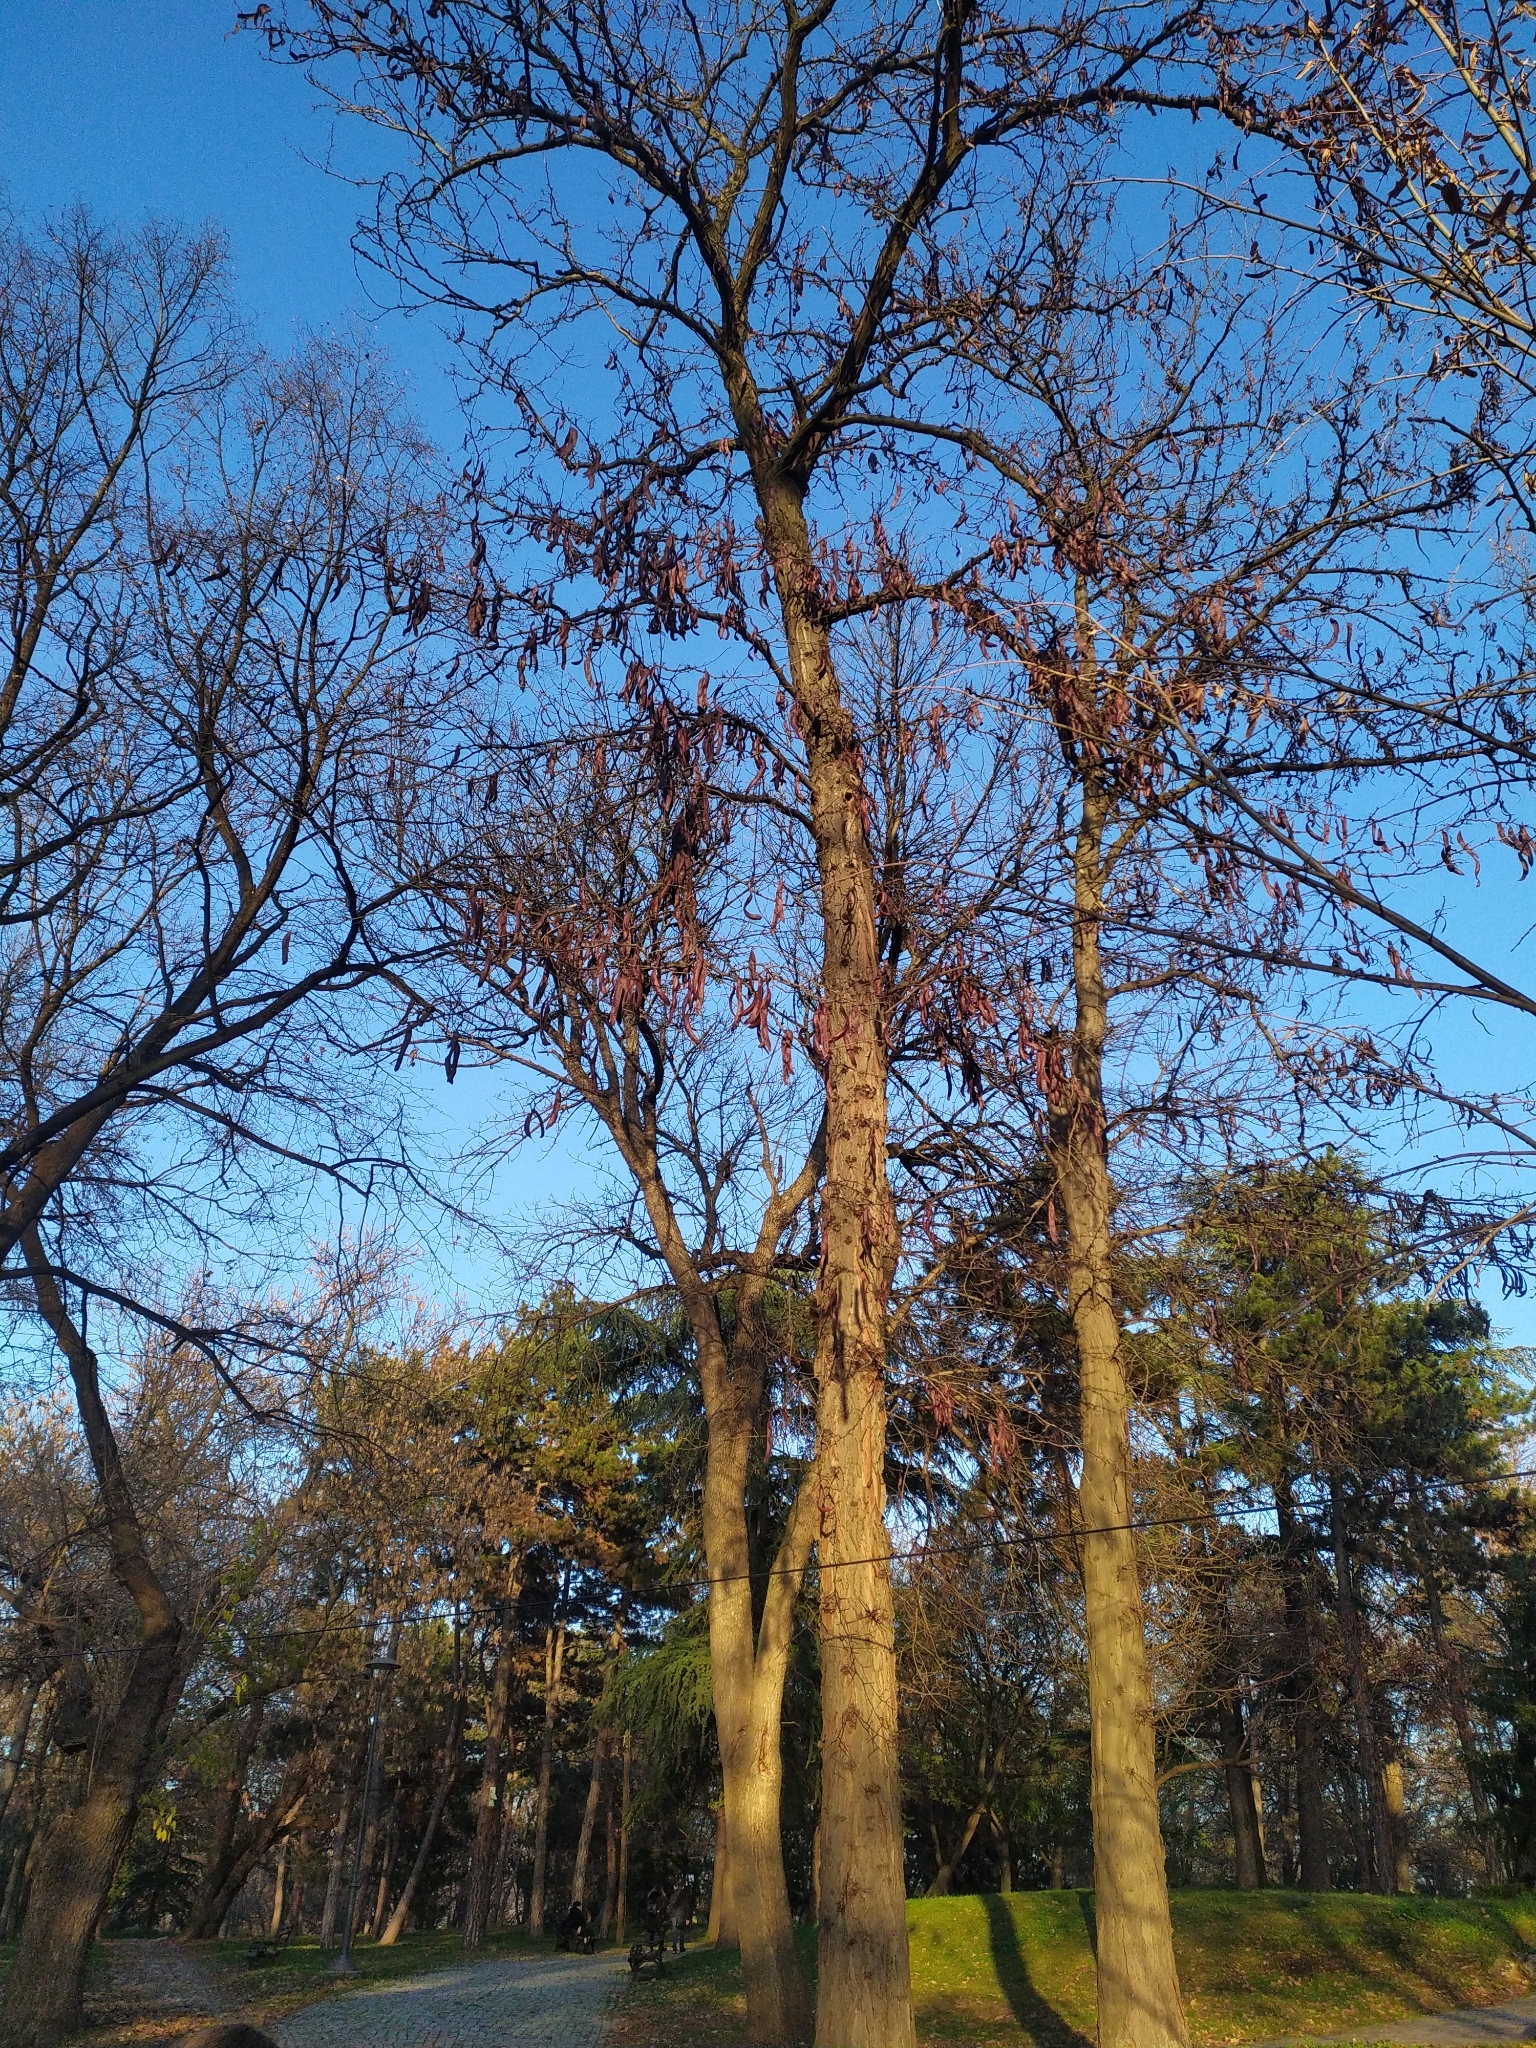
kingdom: Plantae
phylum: Tracheophyta
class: Magnoliopsida
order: Fabales
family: Fabaceae
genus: Gleditsia
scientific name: Gleditsia triacanthos
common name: Common honeylocust
